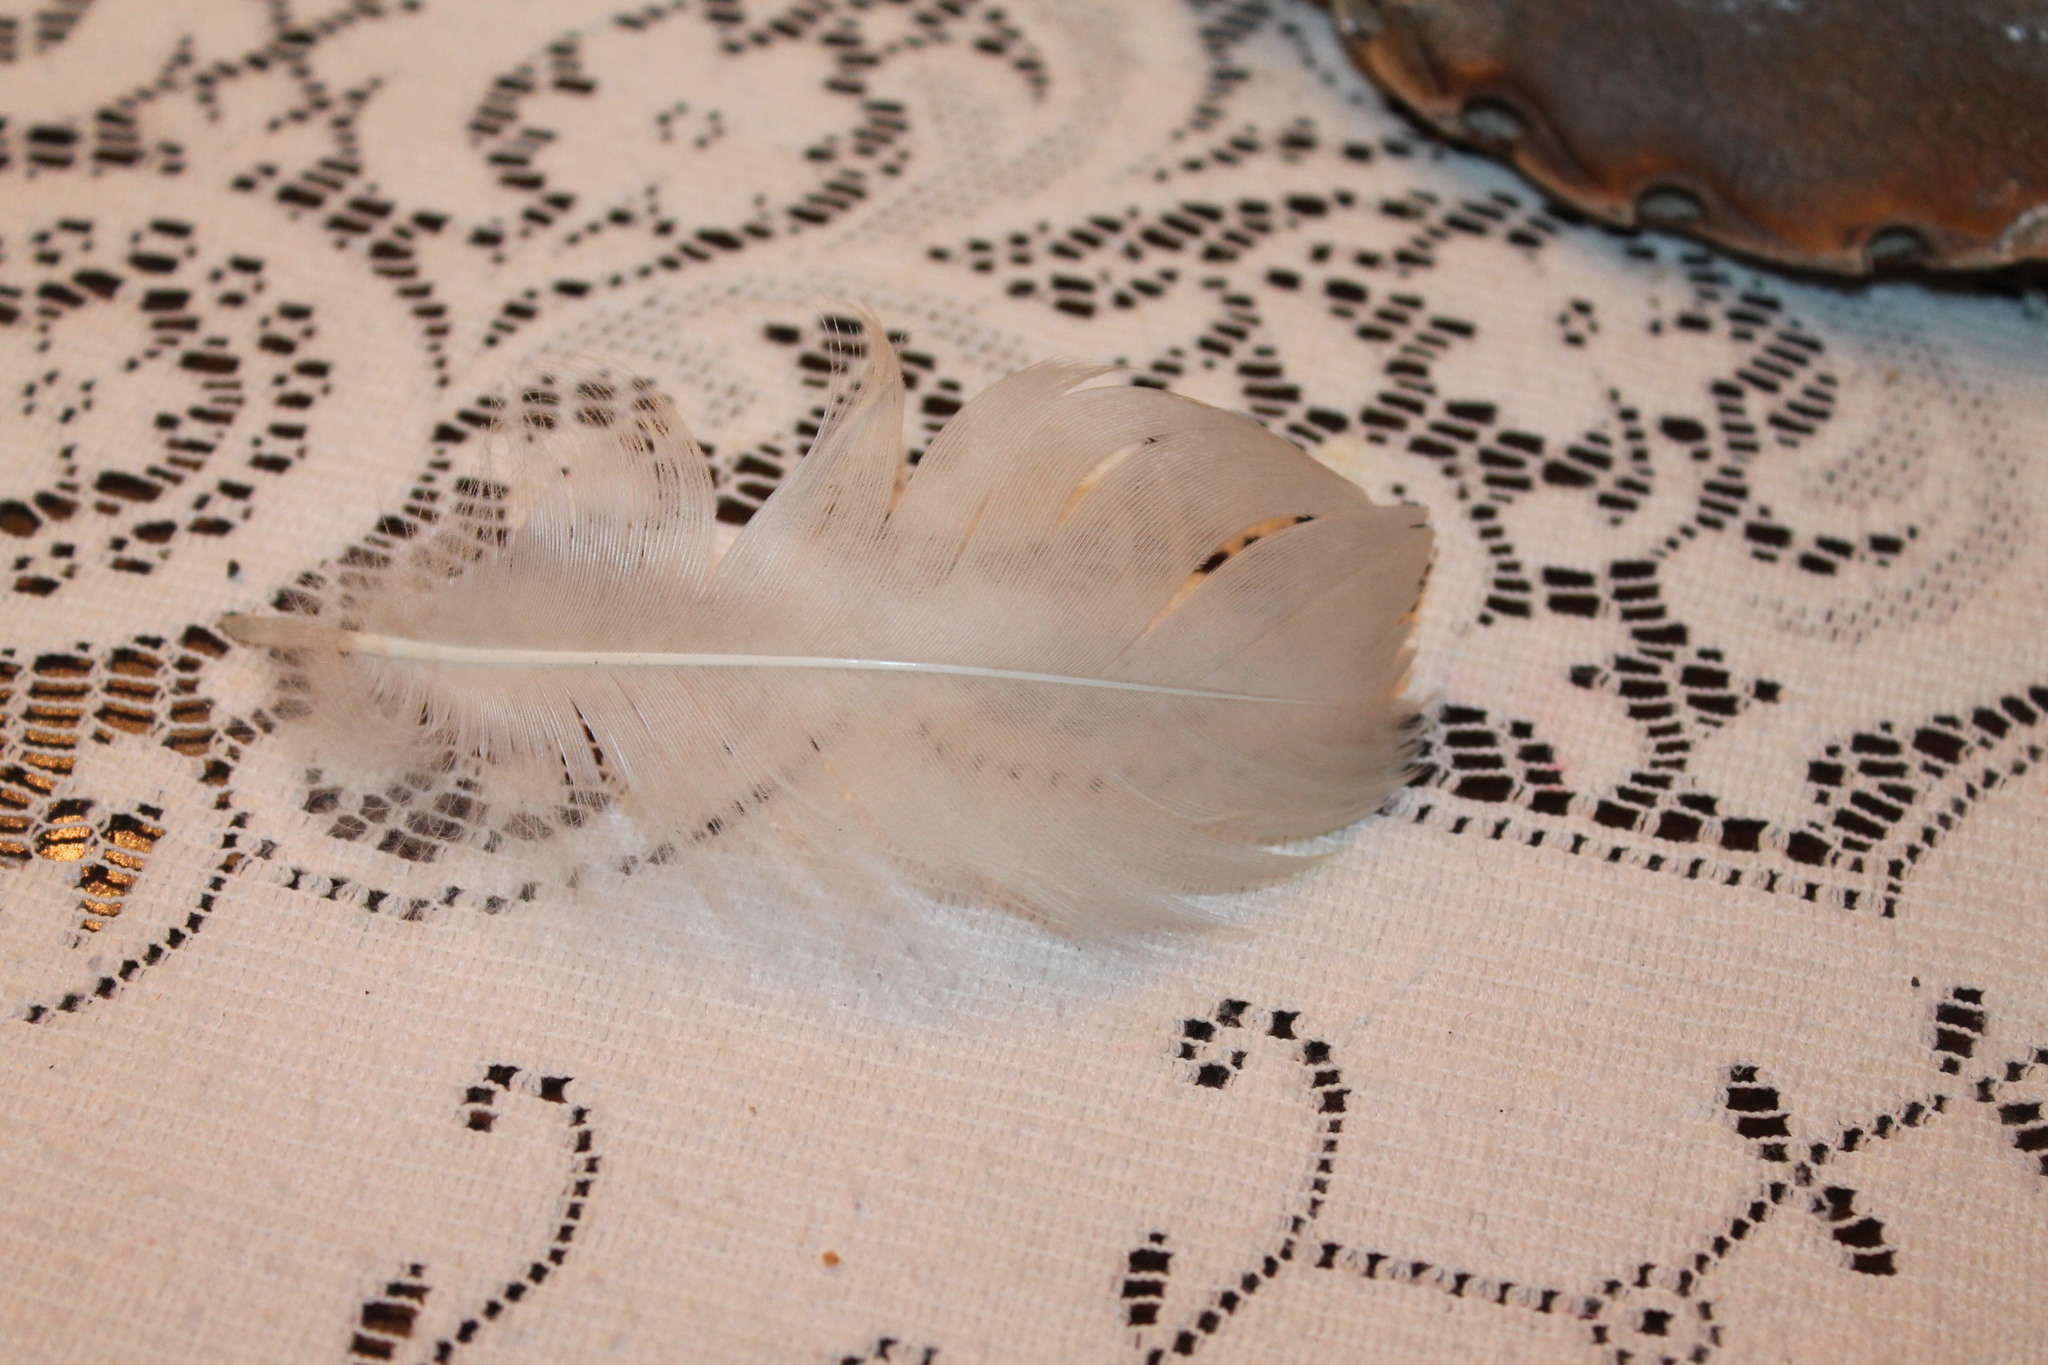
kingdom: Animalia
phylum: Chordata
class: Aves
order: Anseriformes
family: Anatidae
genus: Branta
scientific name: Branta canadensis
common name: Canada goose
